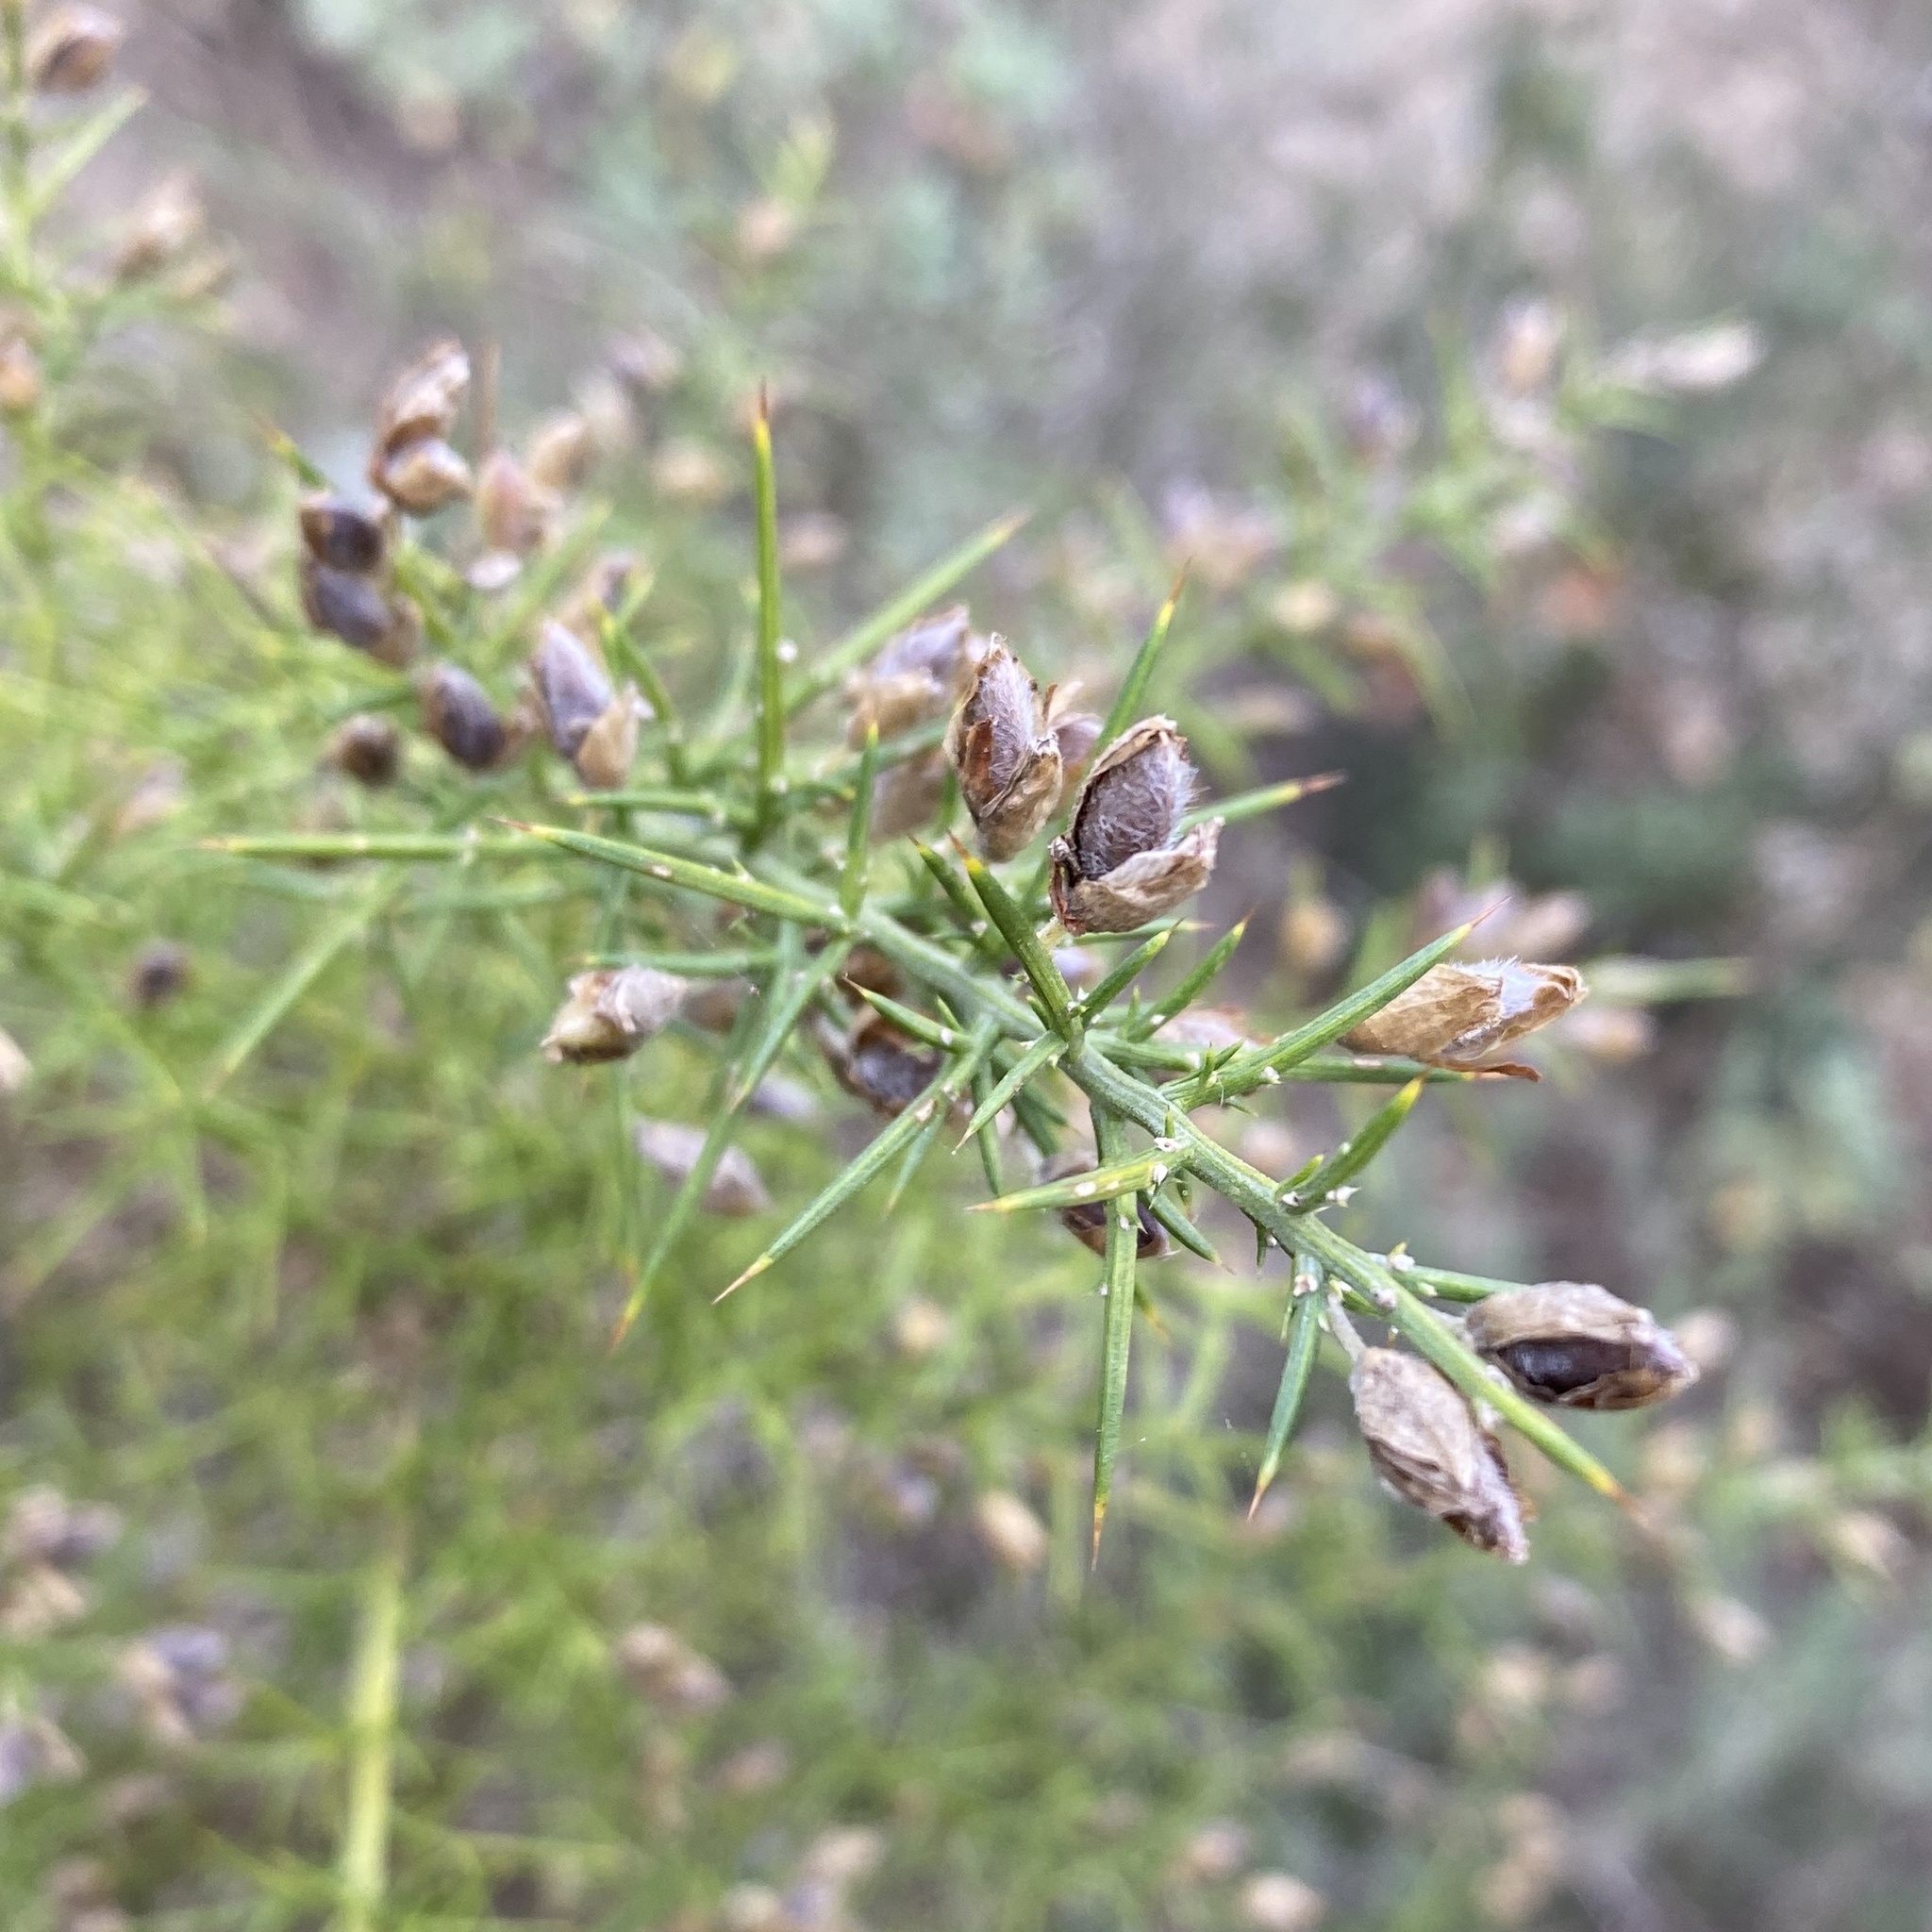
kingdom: Plantae
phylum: Tracheophyta
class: Magnoliopsida
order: Fabales
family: Fabaceae
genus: Ulex
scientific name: Ulex parviflorus
